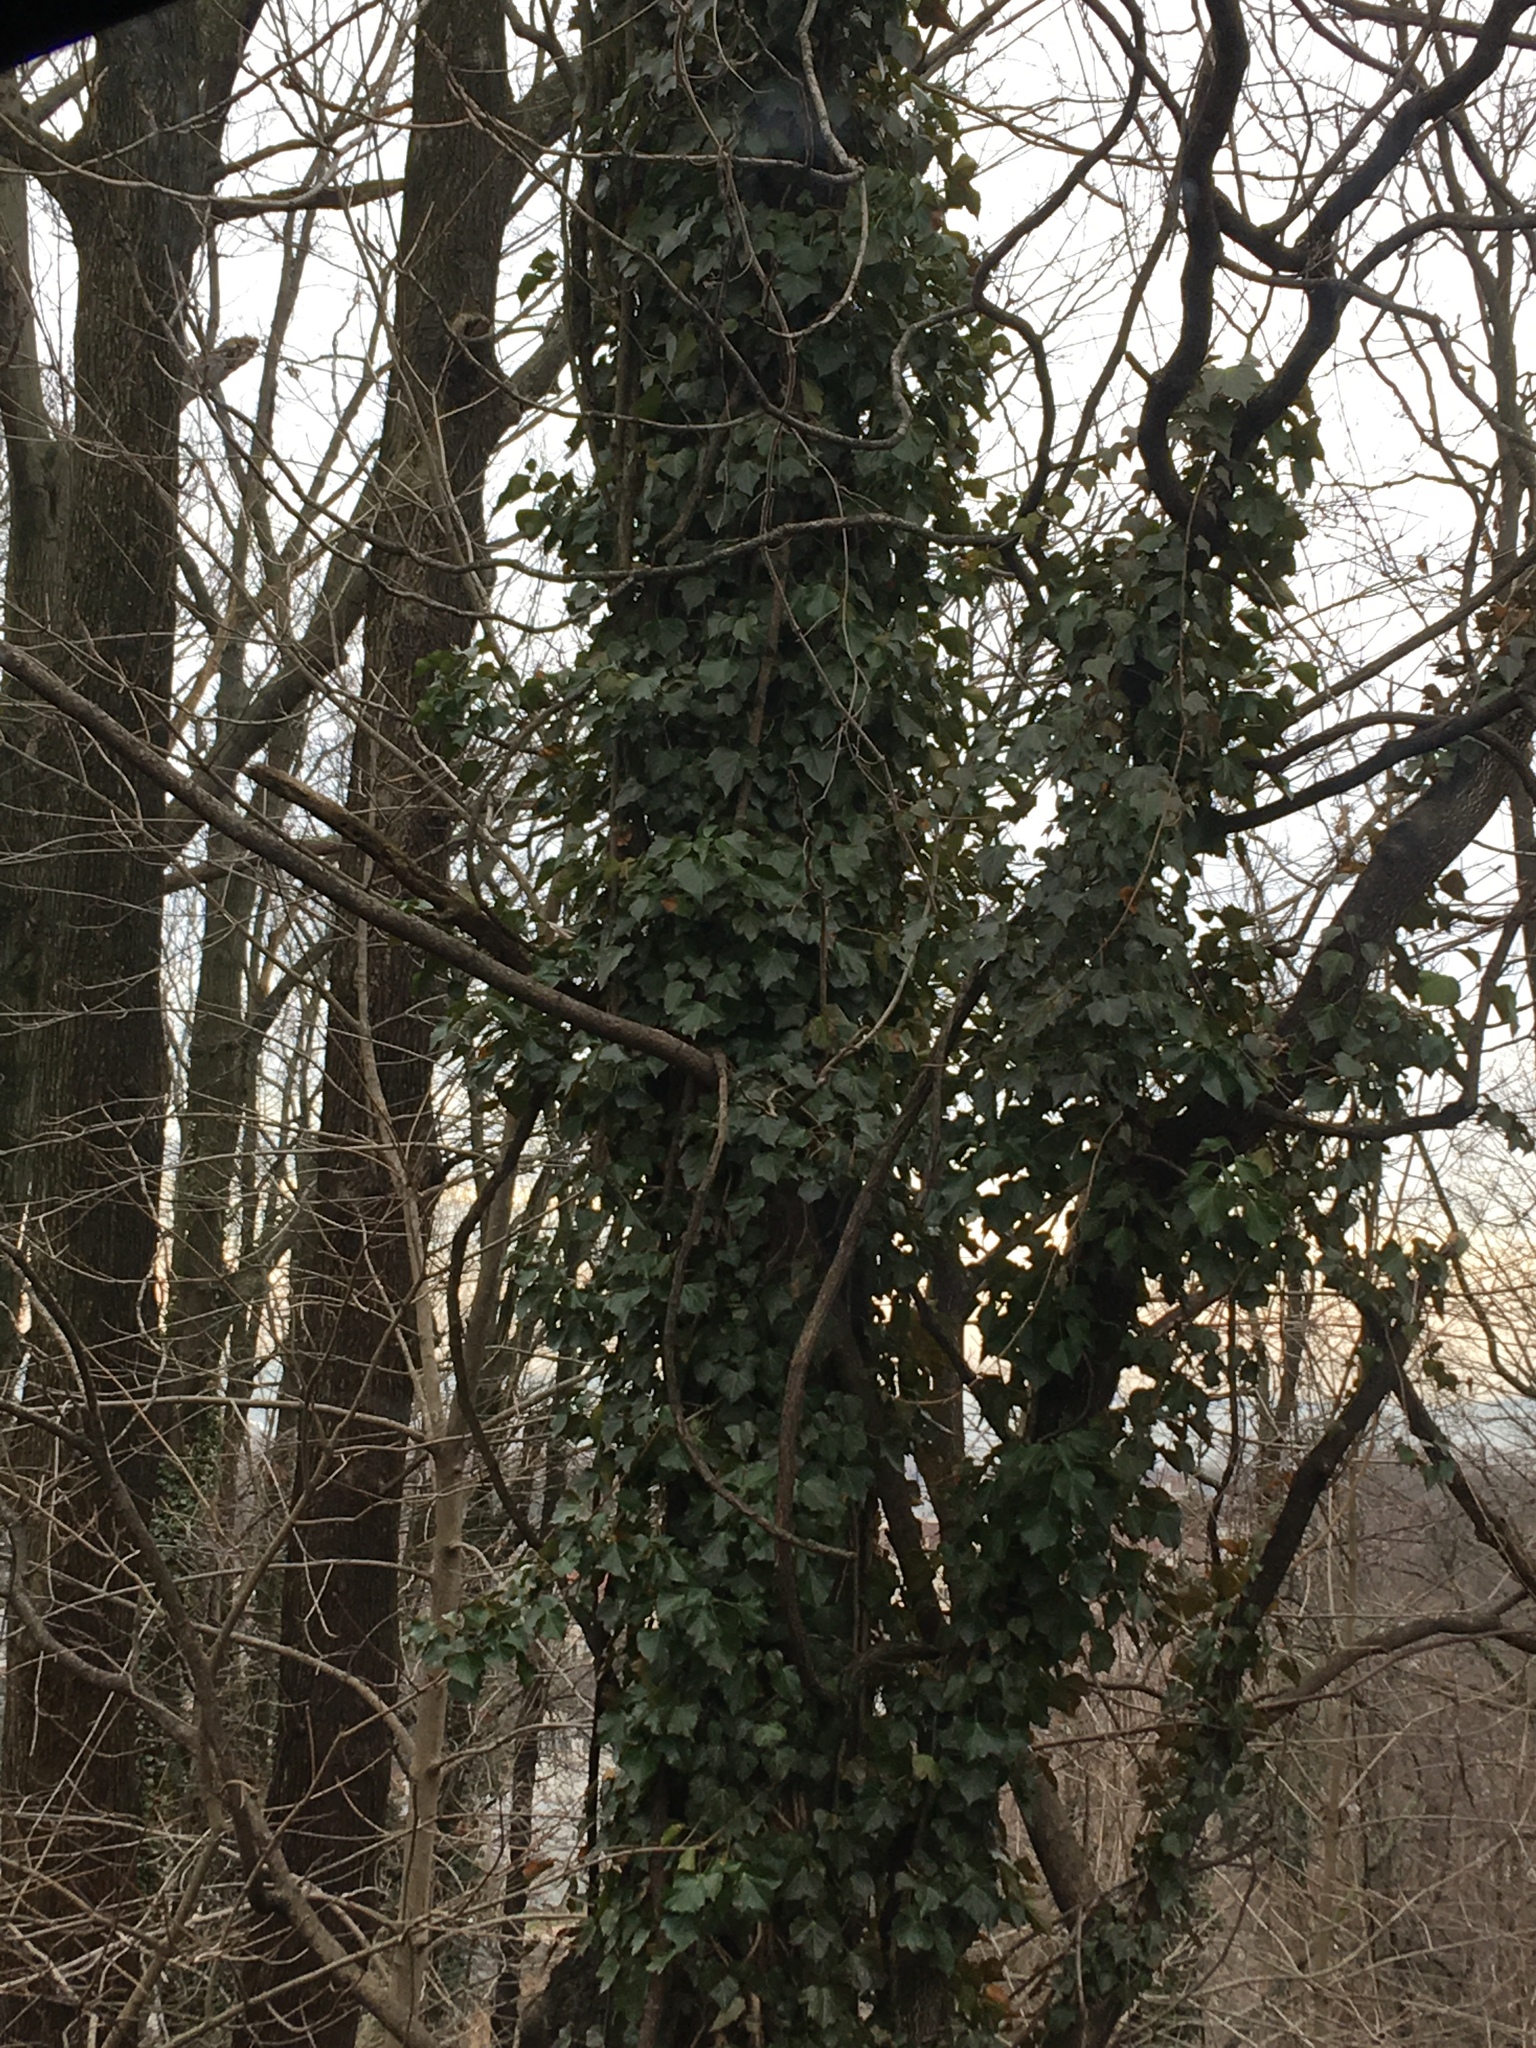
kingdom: Plantae
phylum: Tracheophyta
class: Magnoliopsida
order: Apiales
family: Araliaceae
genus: Hedera
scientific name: Hedera helix
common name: Ivy
